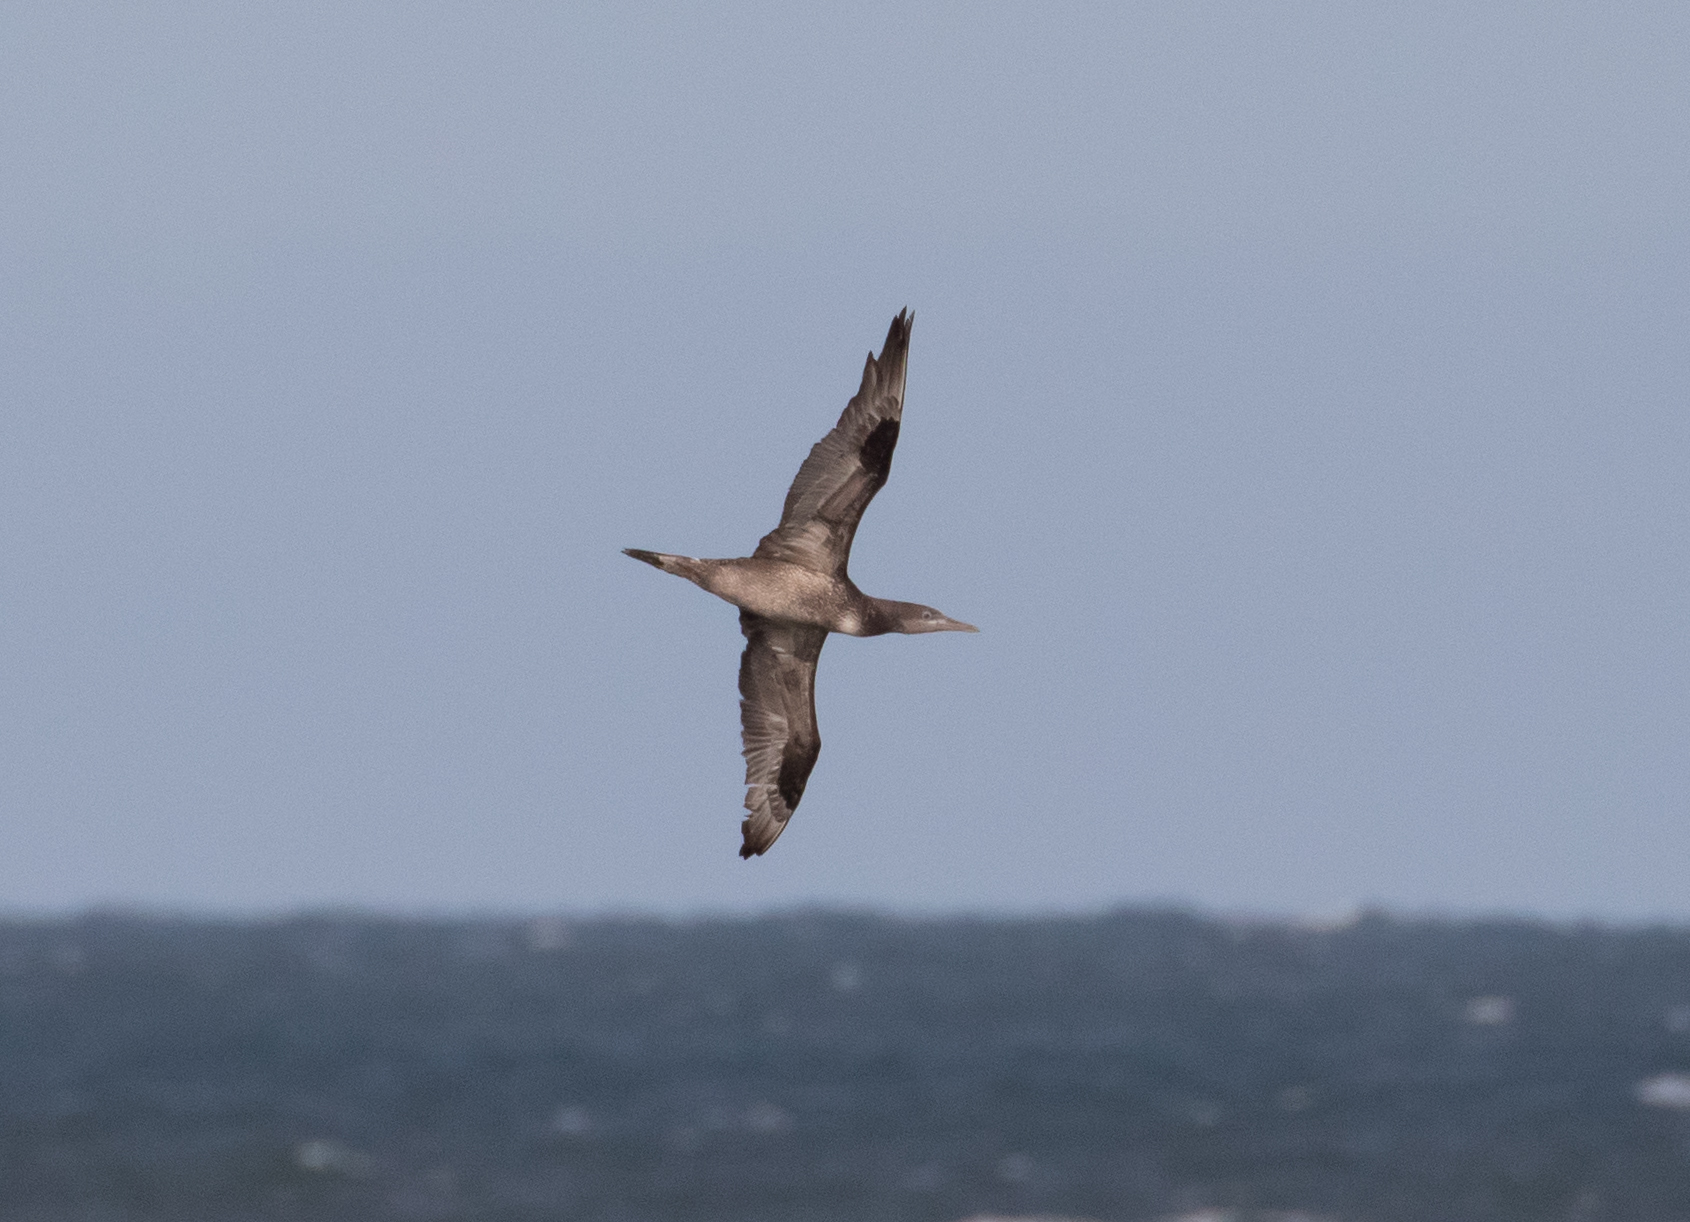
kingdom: Animalia
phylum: Chordata
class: Aves
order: Suliformes
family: Sulidae
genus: Morus
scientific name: Morus bassanus
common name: Northern gannet
